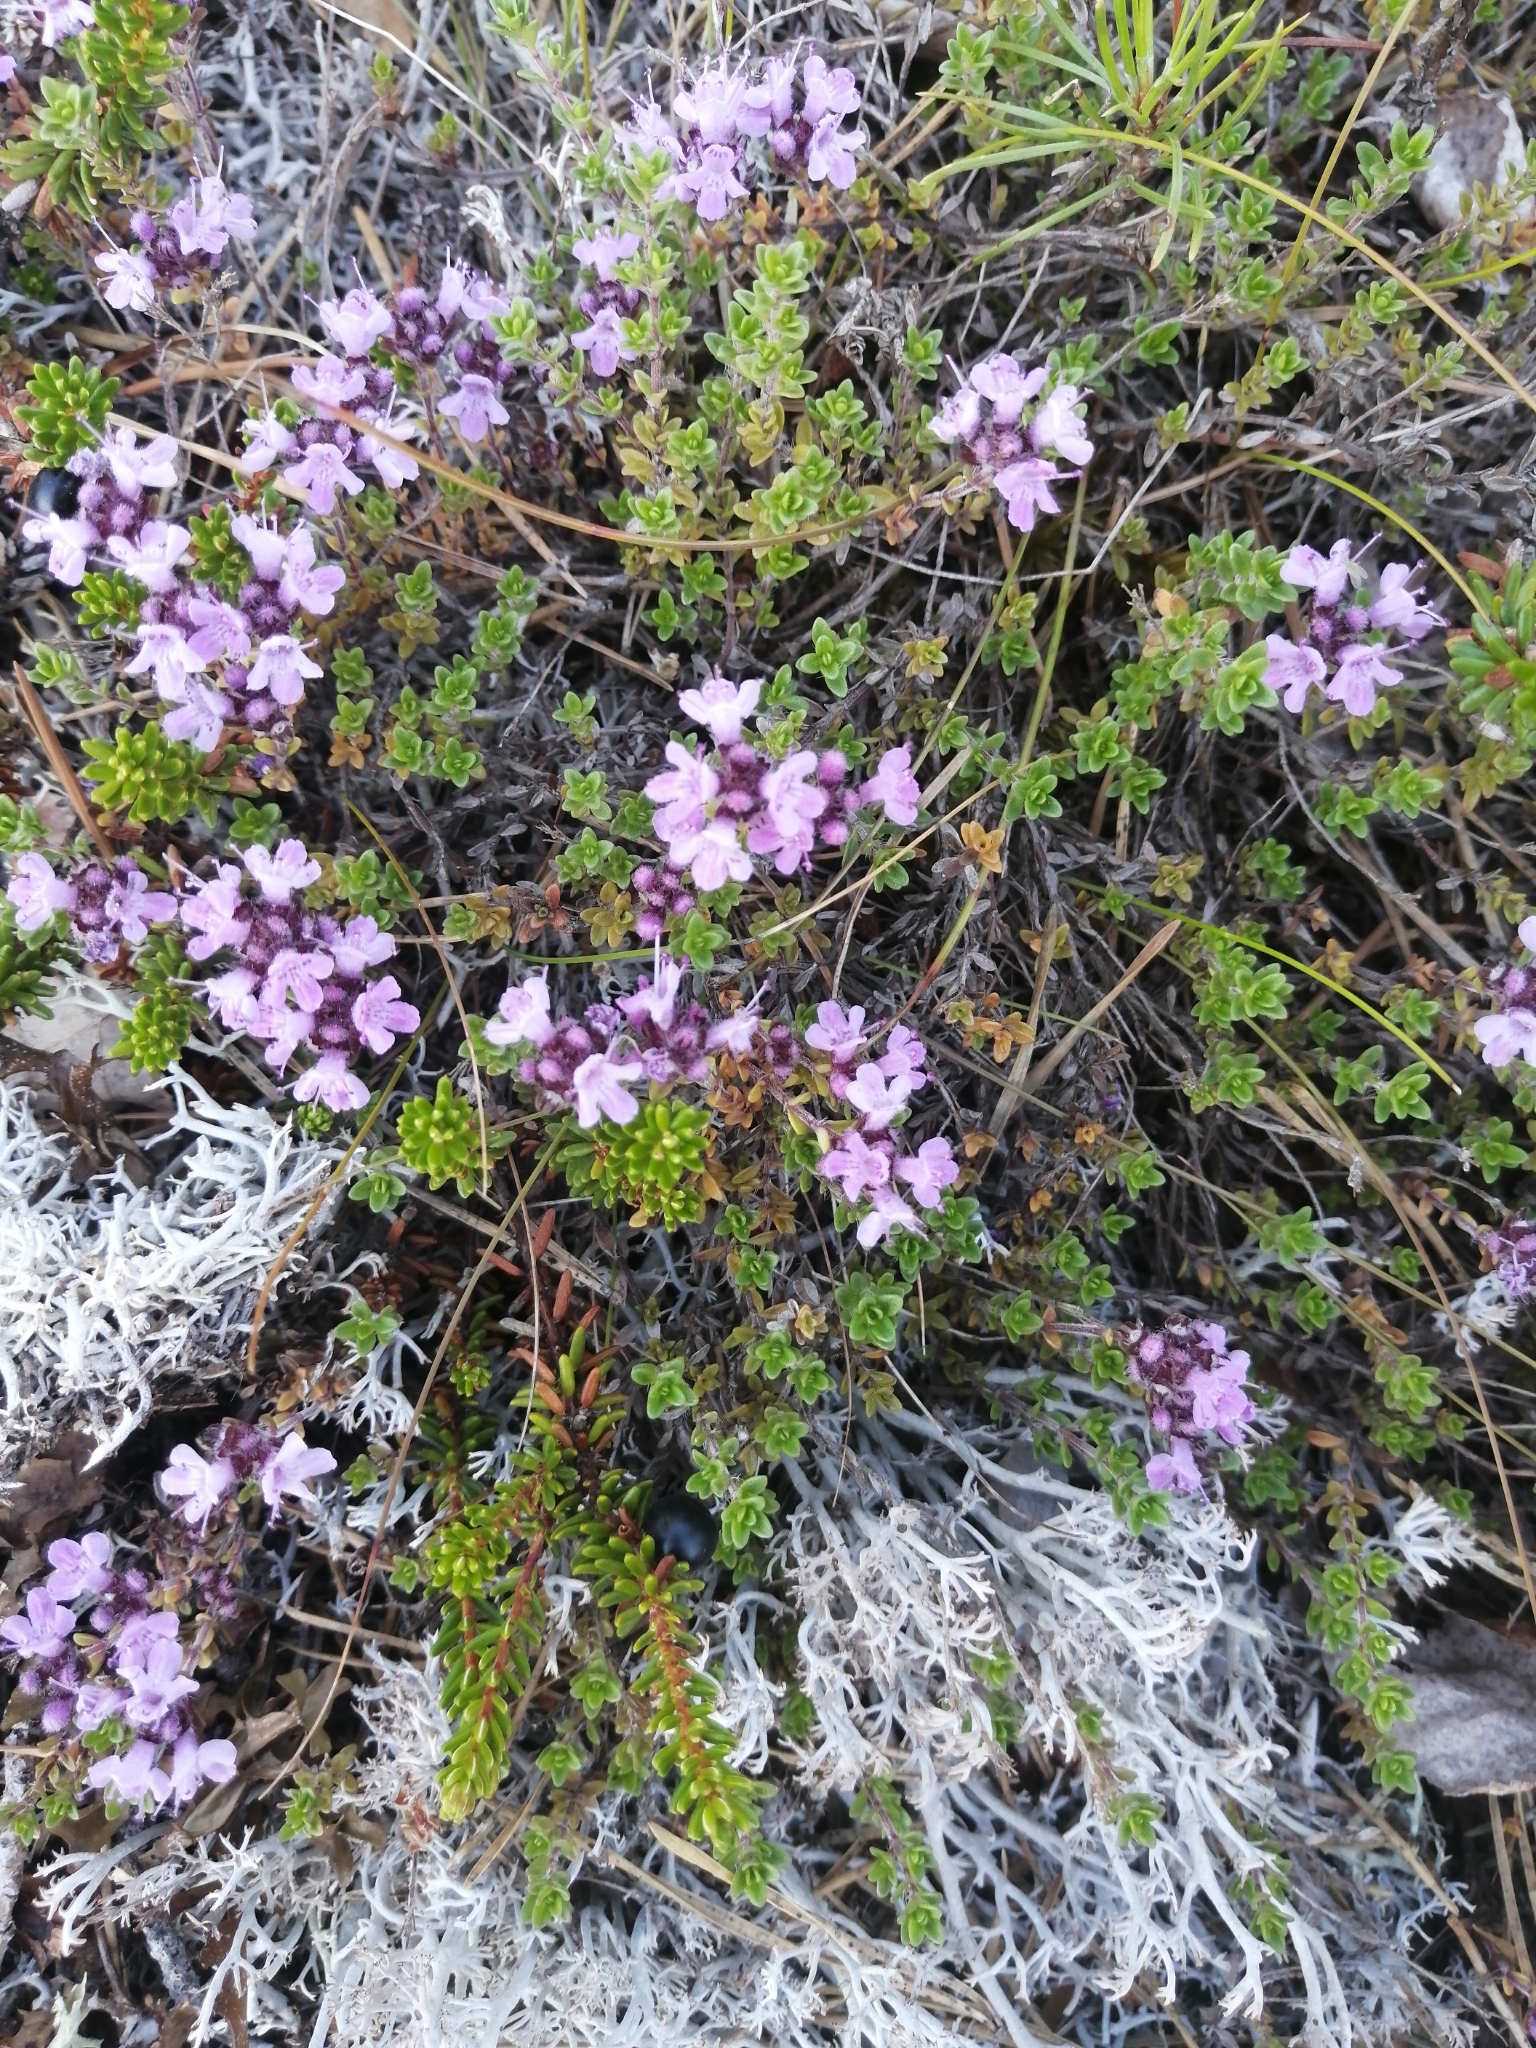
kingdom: Plantae
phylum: Tracheophyta
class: Magnoliopsida
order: Lamiales
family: Lamiaceae
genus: Thymus
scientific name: Thymus serpyllum
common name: Breckland thyme
